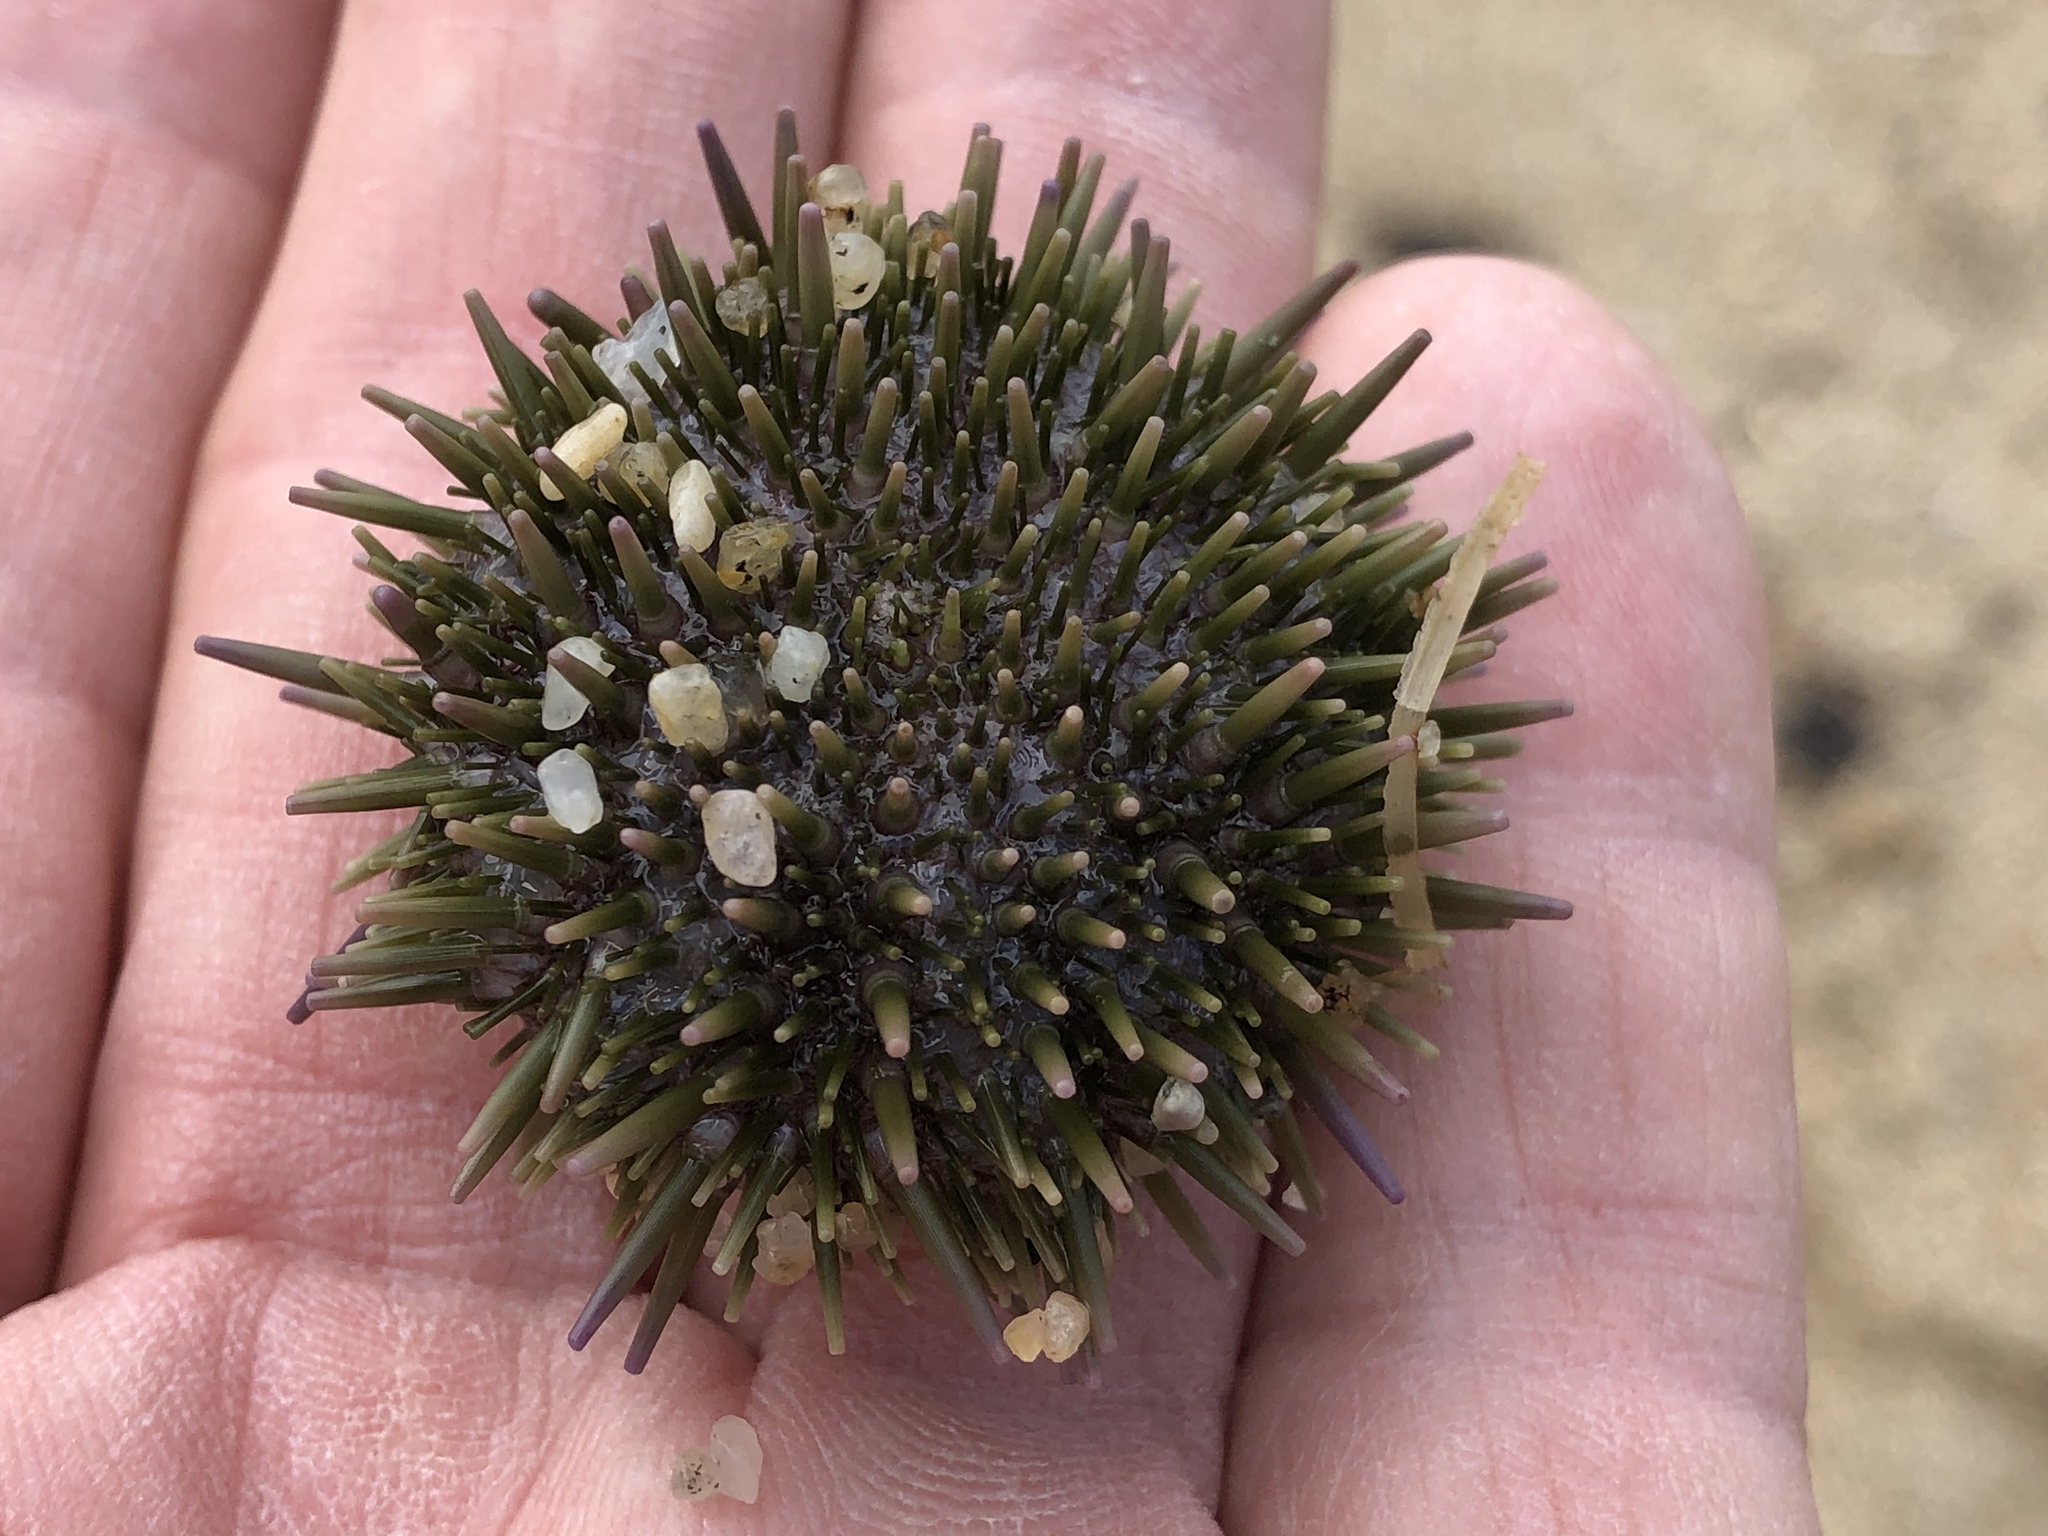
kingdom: Animalia
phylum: Echinodermata
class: Echinoidea
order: Camarodonta
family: Strongylocentrotidae
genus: Strongylocentrotus
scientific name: Strongylocentrotus purpuratus
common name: Purple sea urchin
